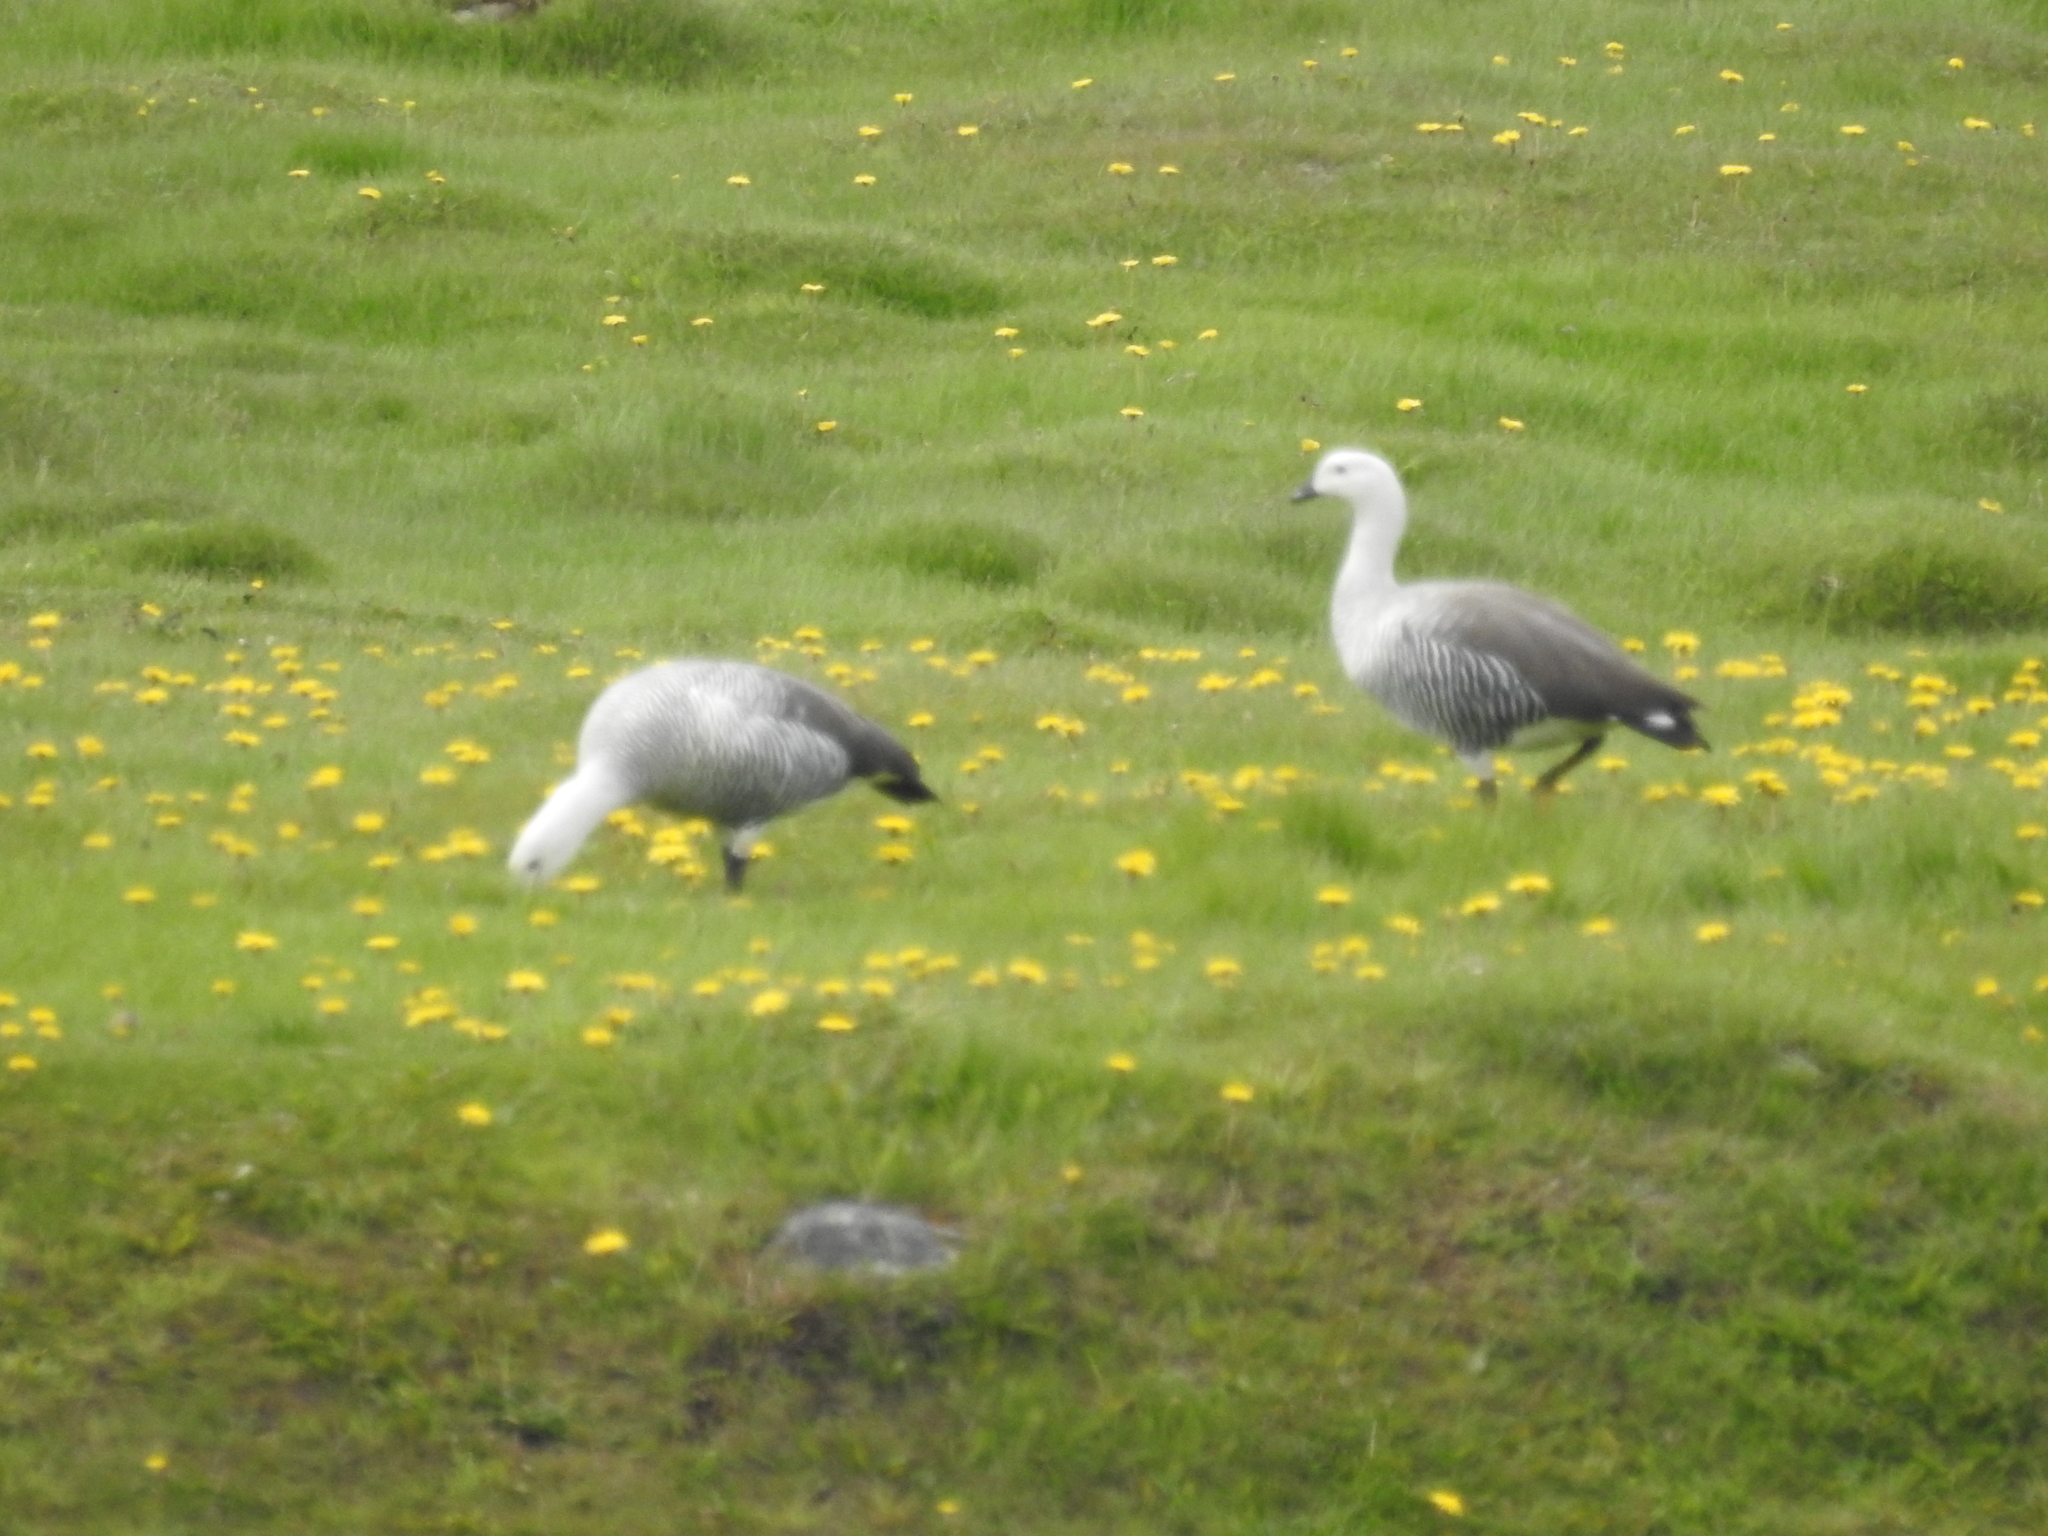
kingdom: Animalia
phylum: Chordata
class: Aves
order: Anseriformes
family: Anatidae
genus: Chloephaga
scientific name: Chloephaga picta
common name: Upland goose
